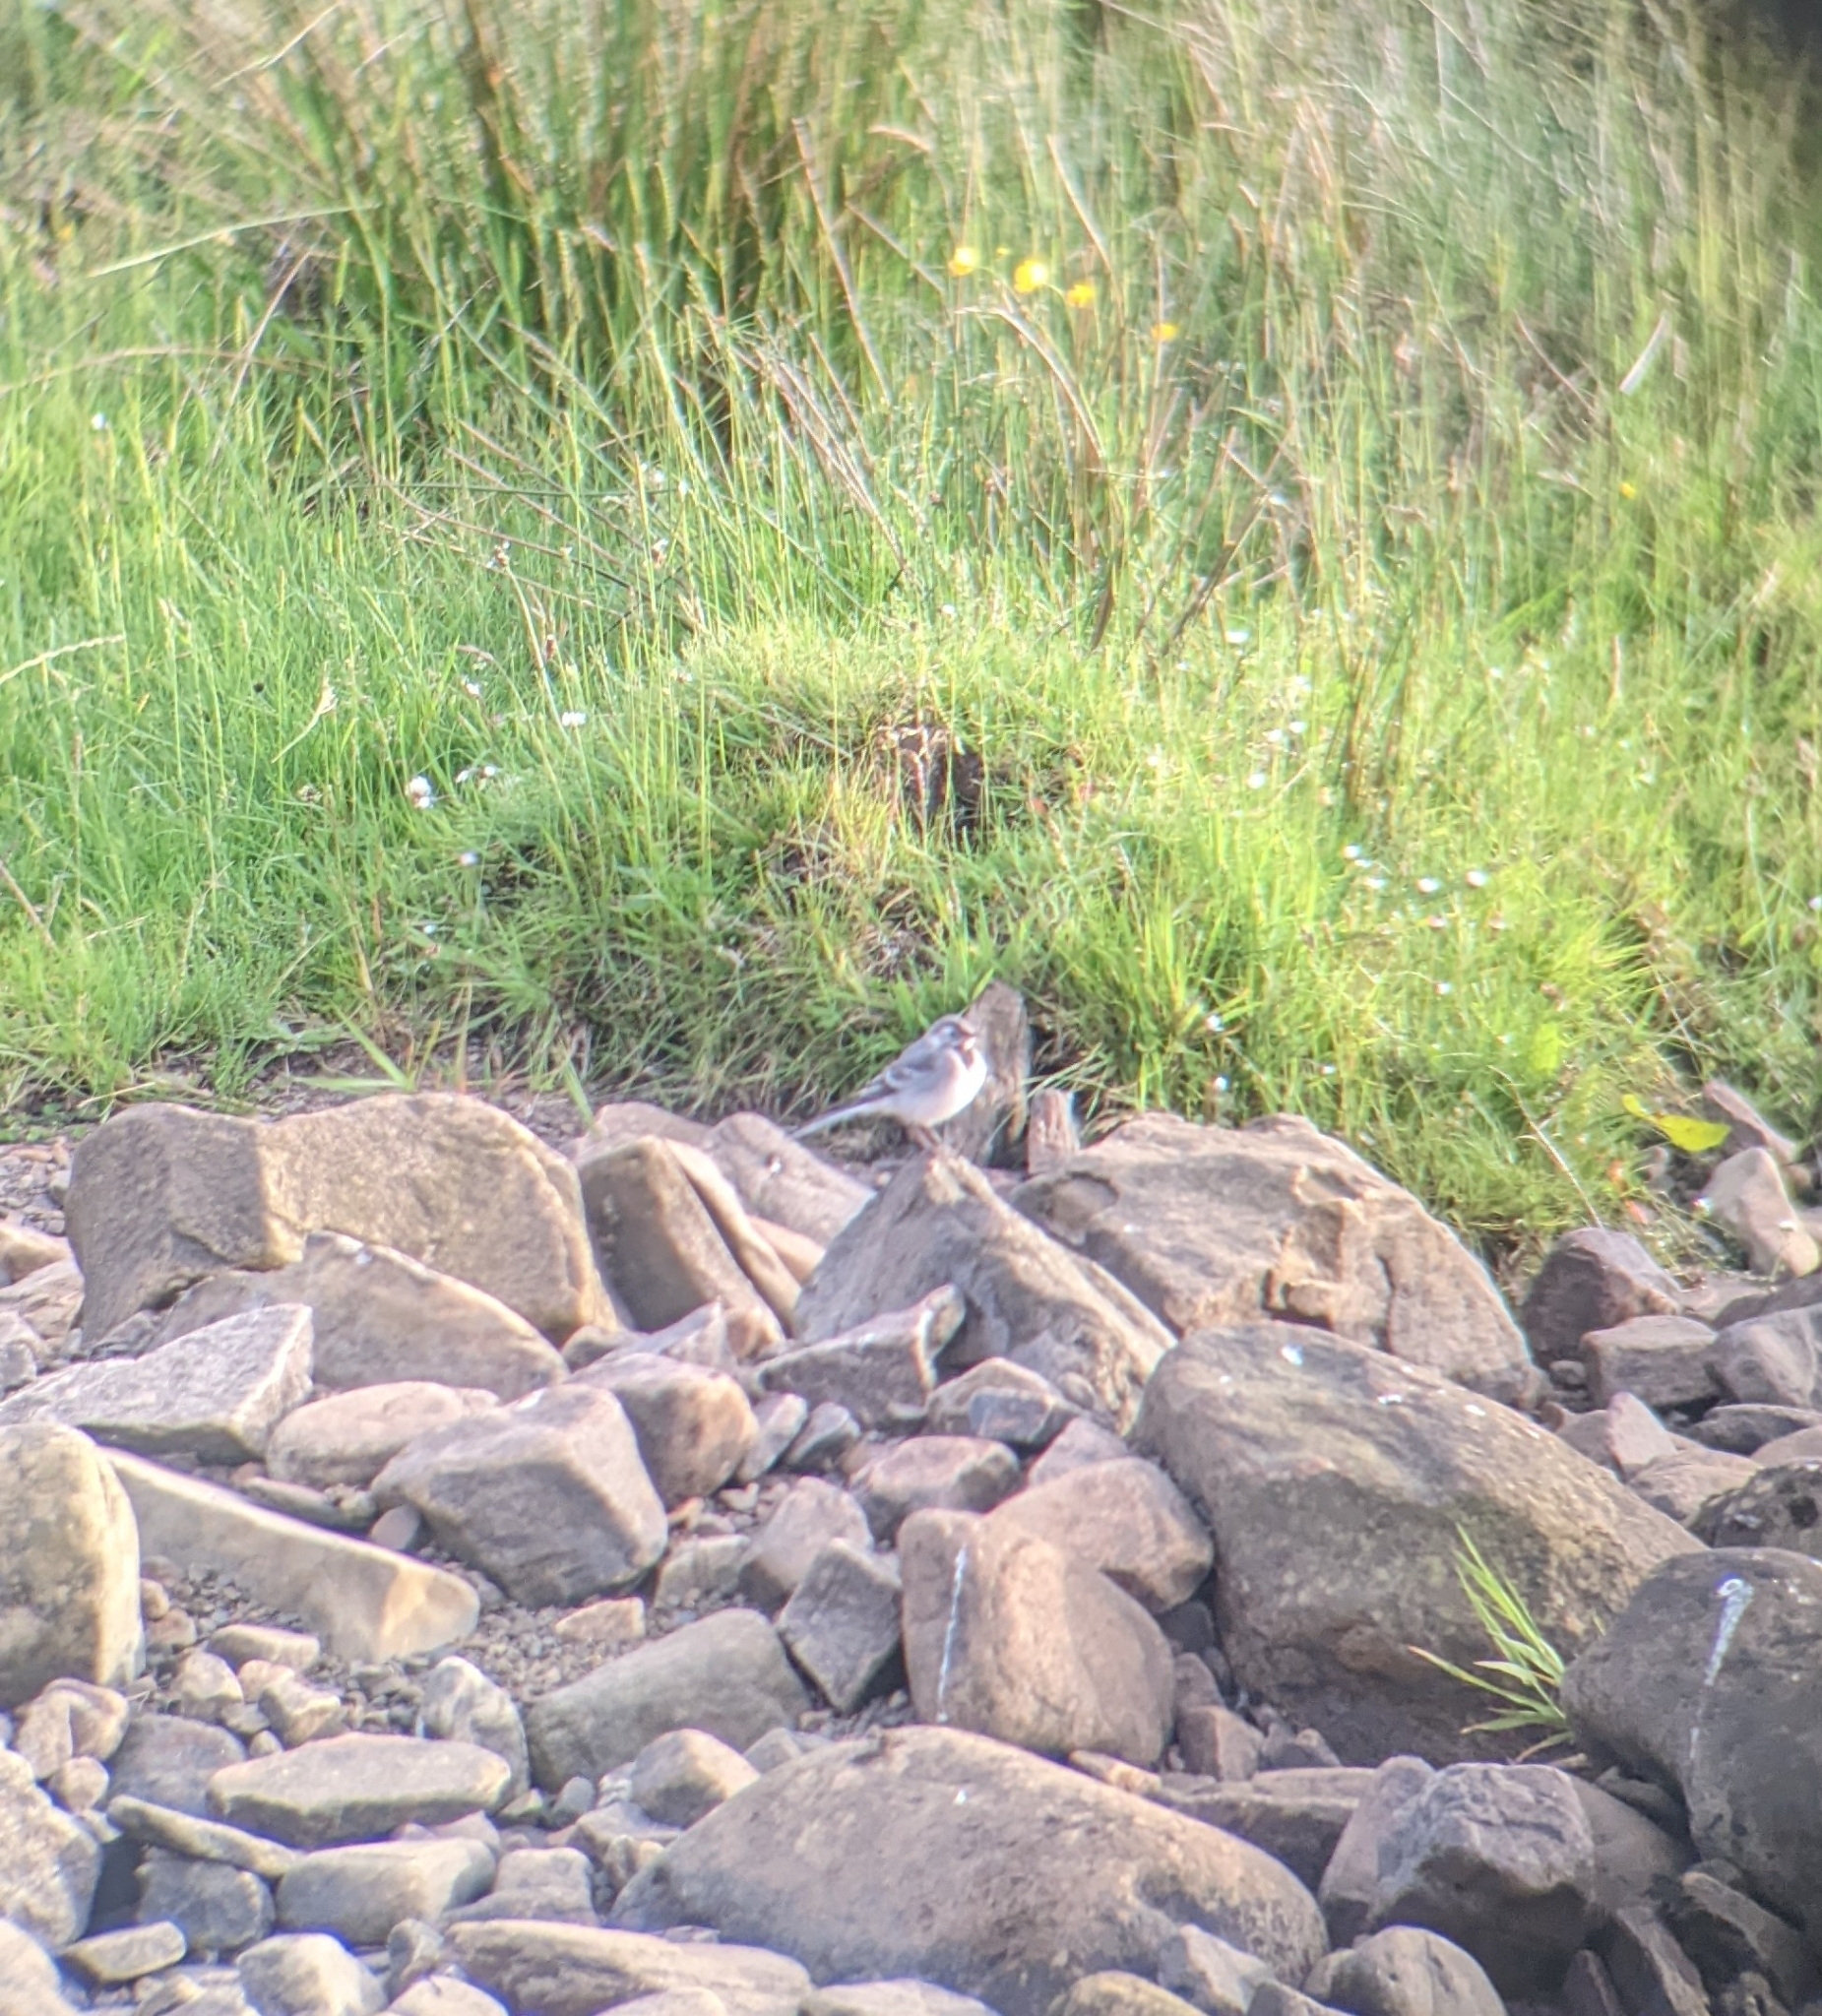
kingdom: Animalia
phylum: Chordata
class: Aves
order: Passeriformes
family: Motacillidae
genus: Motacilla
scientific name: Motacilla alba
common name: White wagtail
